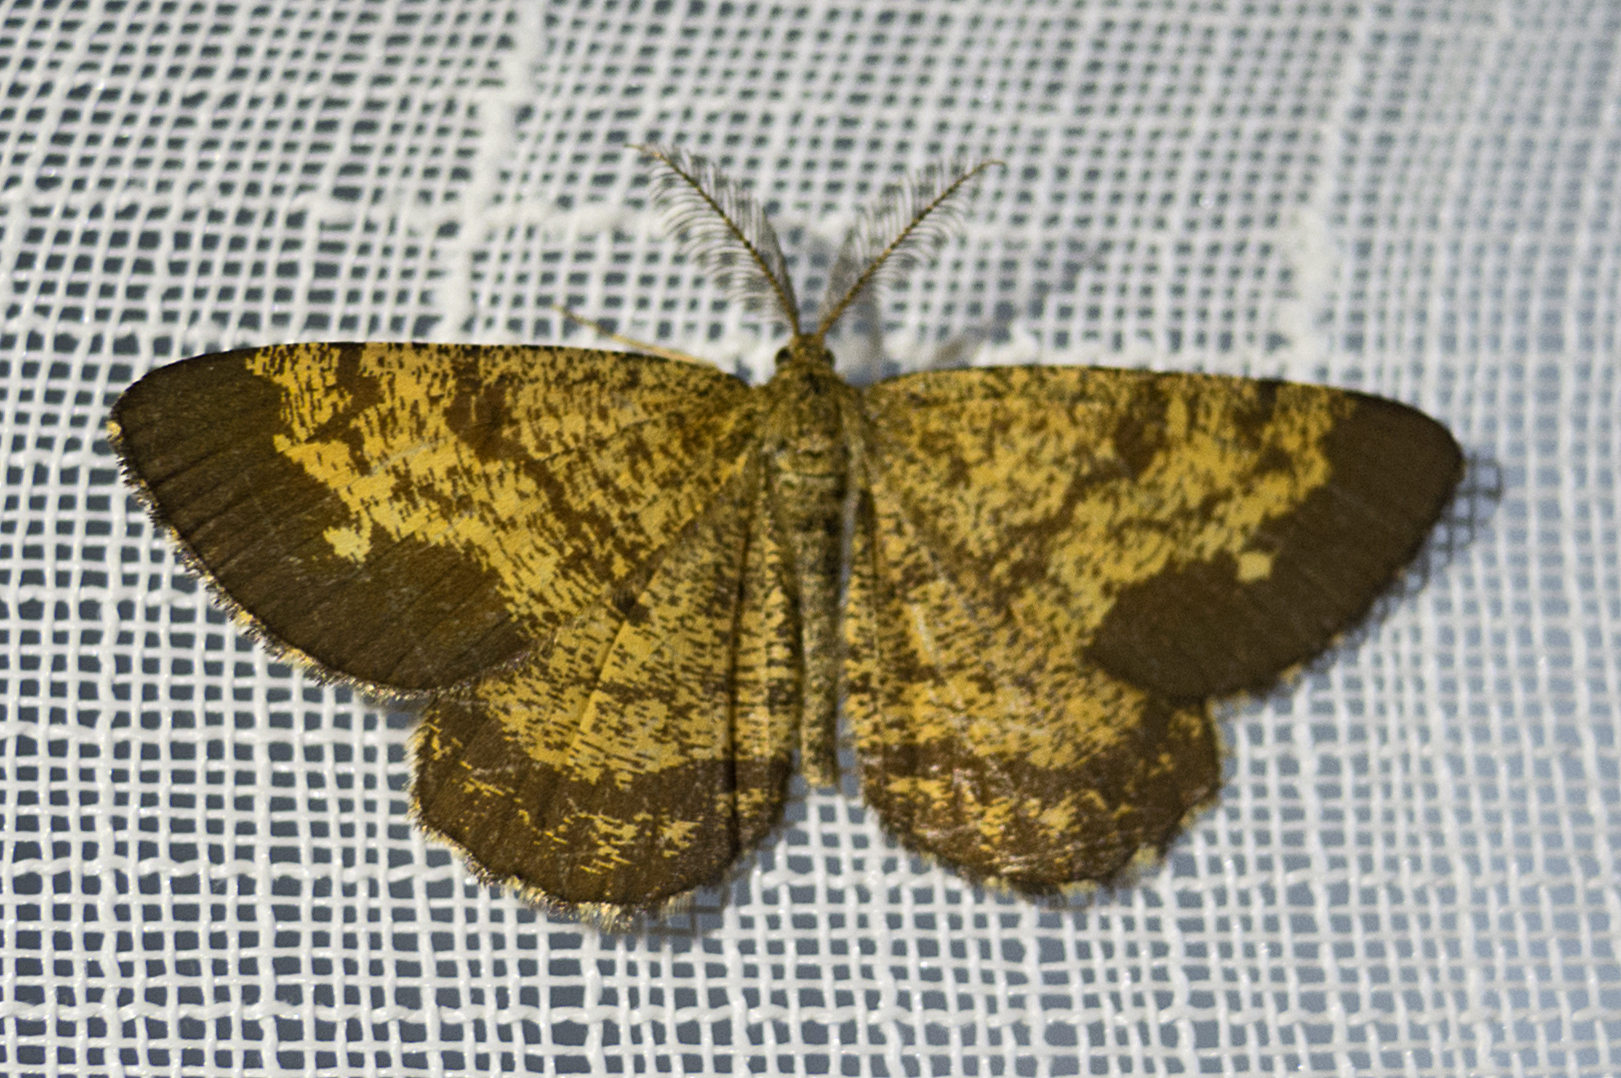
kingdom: Animalia
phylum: Arthropoda
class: Insecta
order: Lepidoptera
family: Geometridae
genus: Ematurga
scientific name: Ematurga atomaria
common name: Common heath
